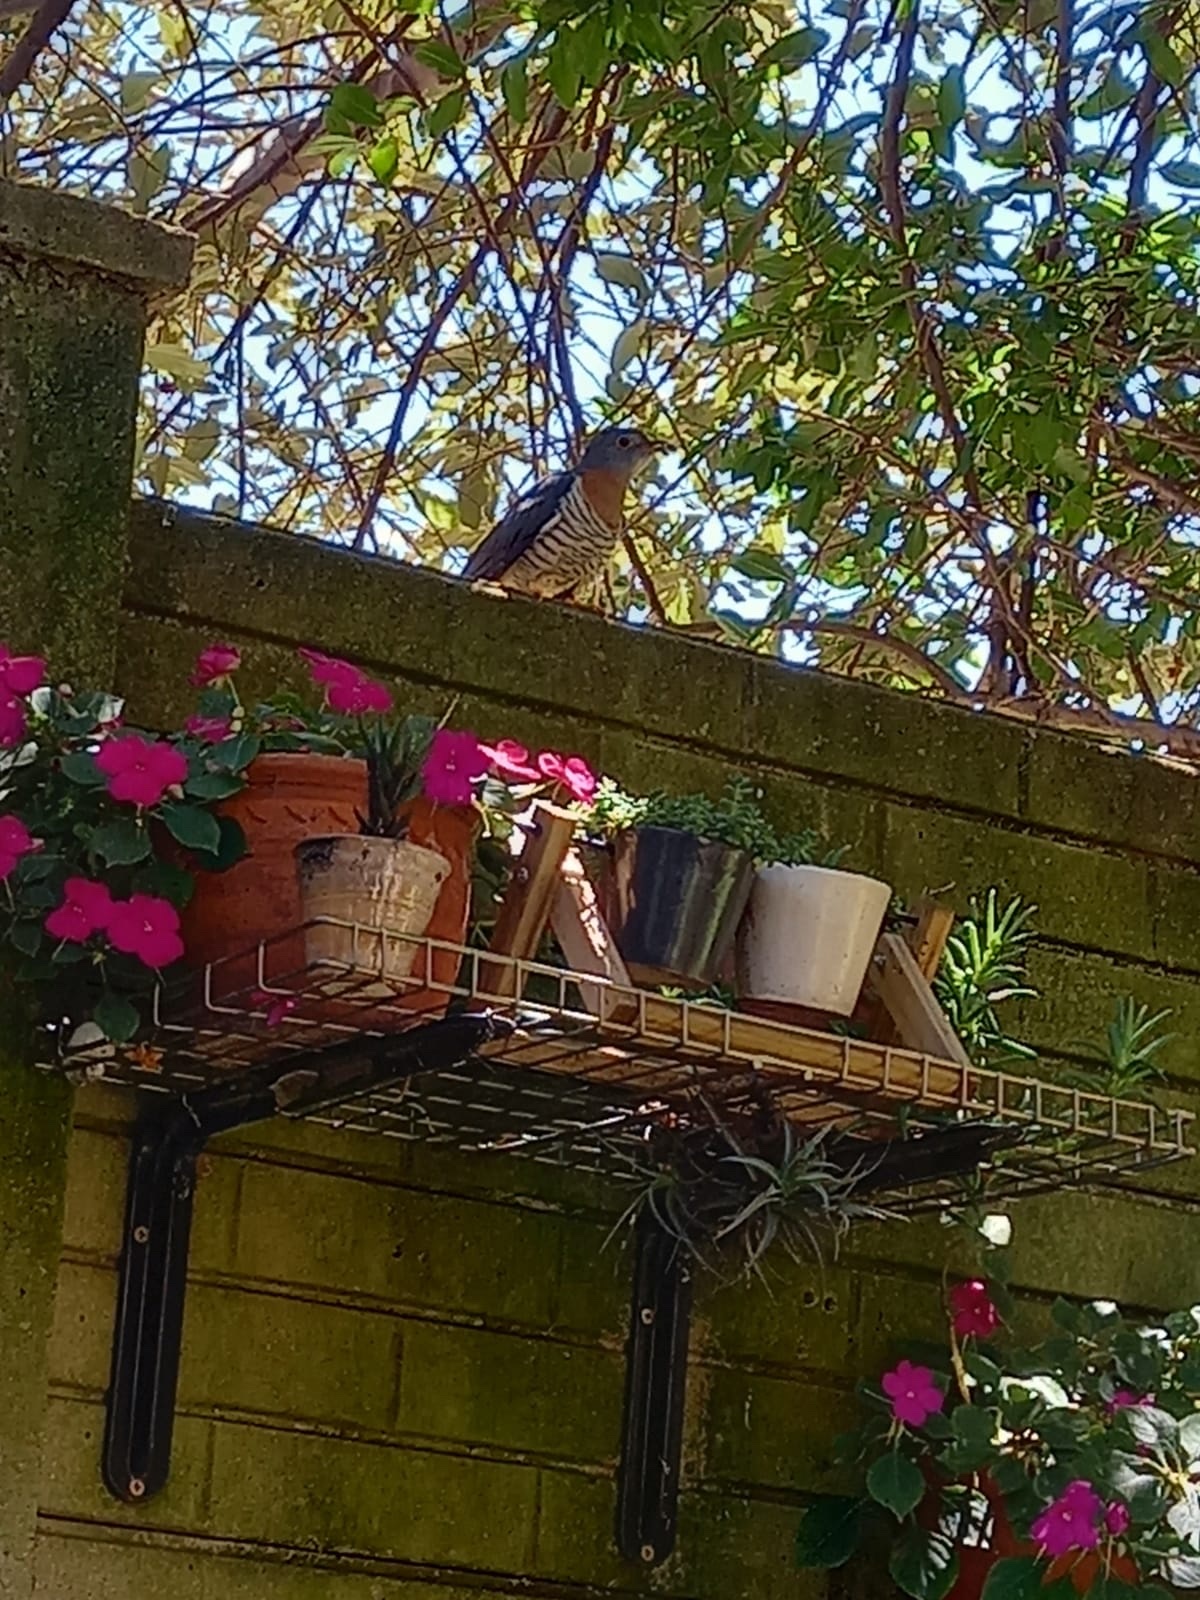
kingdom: Animalia
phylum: Chordata
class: Aves
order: Cuculiformes
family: Cuculidae
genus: Cuculus
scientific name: Cuculus solitarius
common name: Red-chested cuckoo
